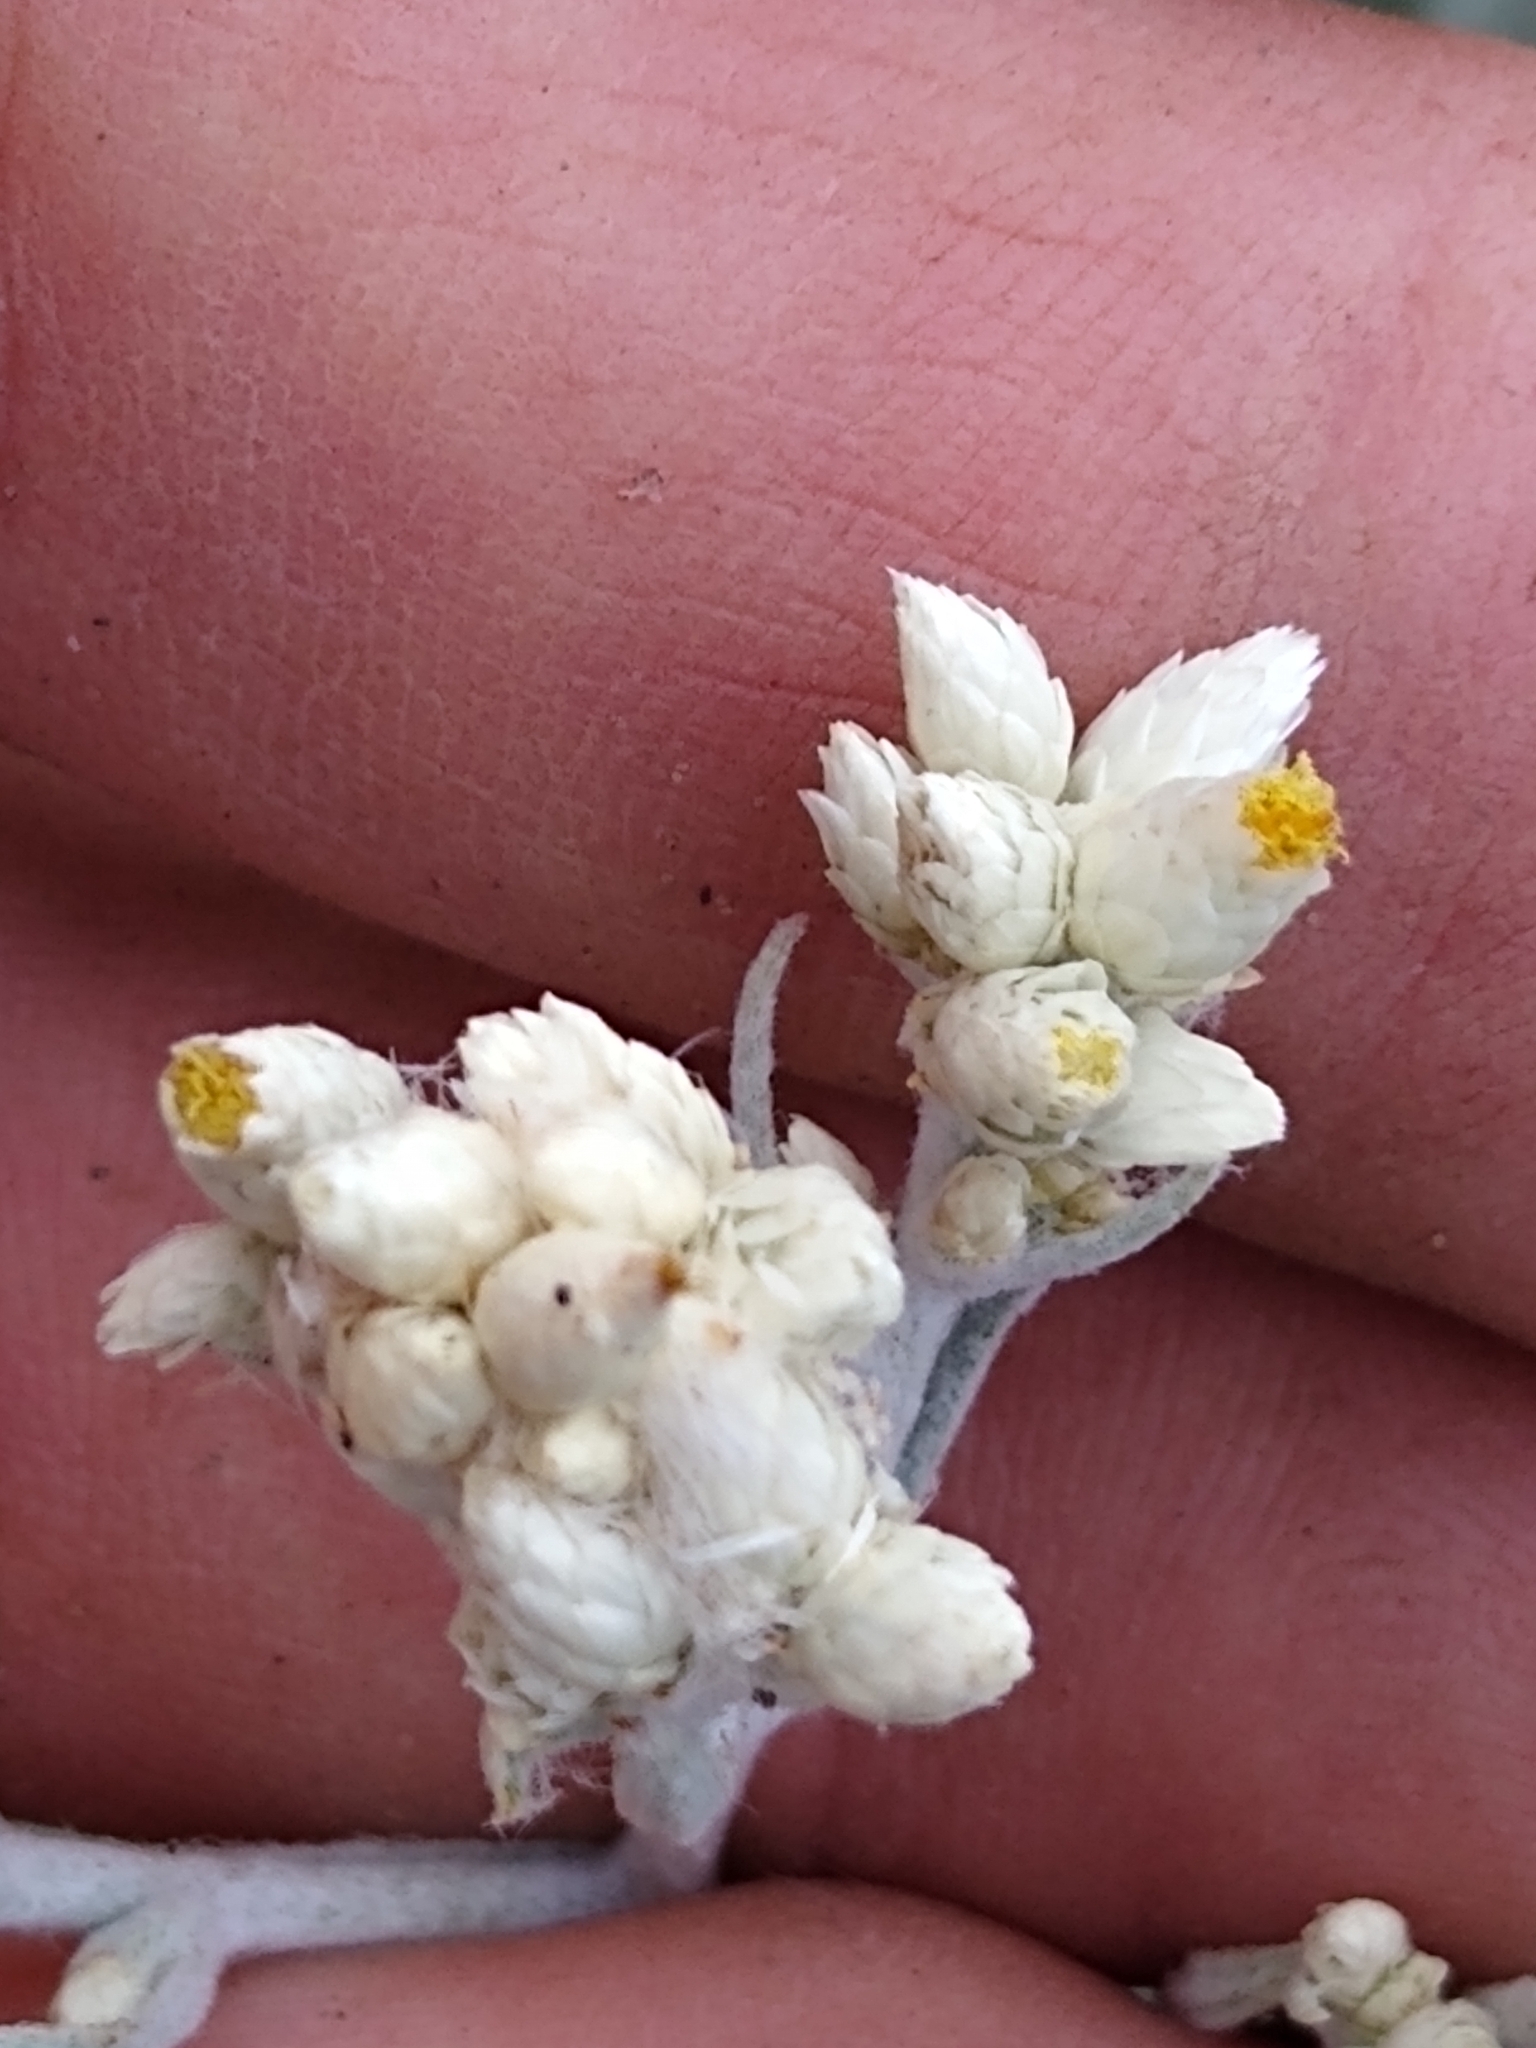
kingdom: Plantae
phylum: Tracheophyta
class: Magnoliopsida
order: Asterales
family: Asteraceae
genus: Pseudognaphalium
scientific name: Pseudognaphalium californicum
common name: California rabbit-tobacco
